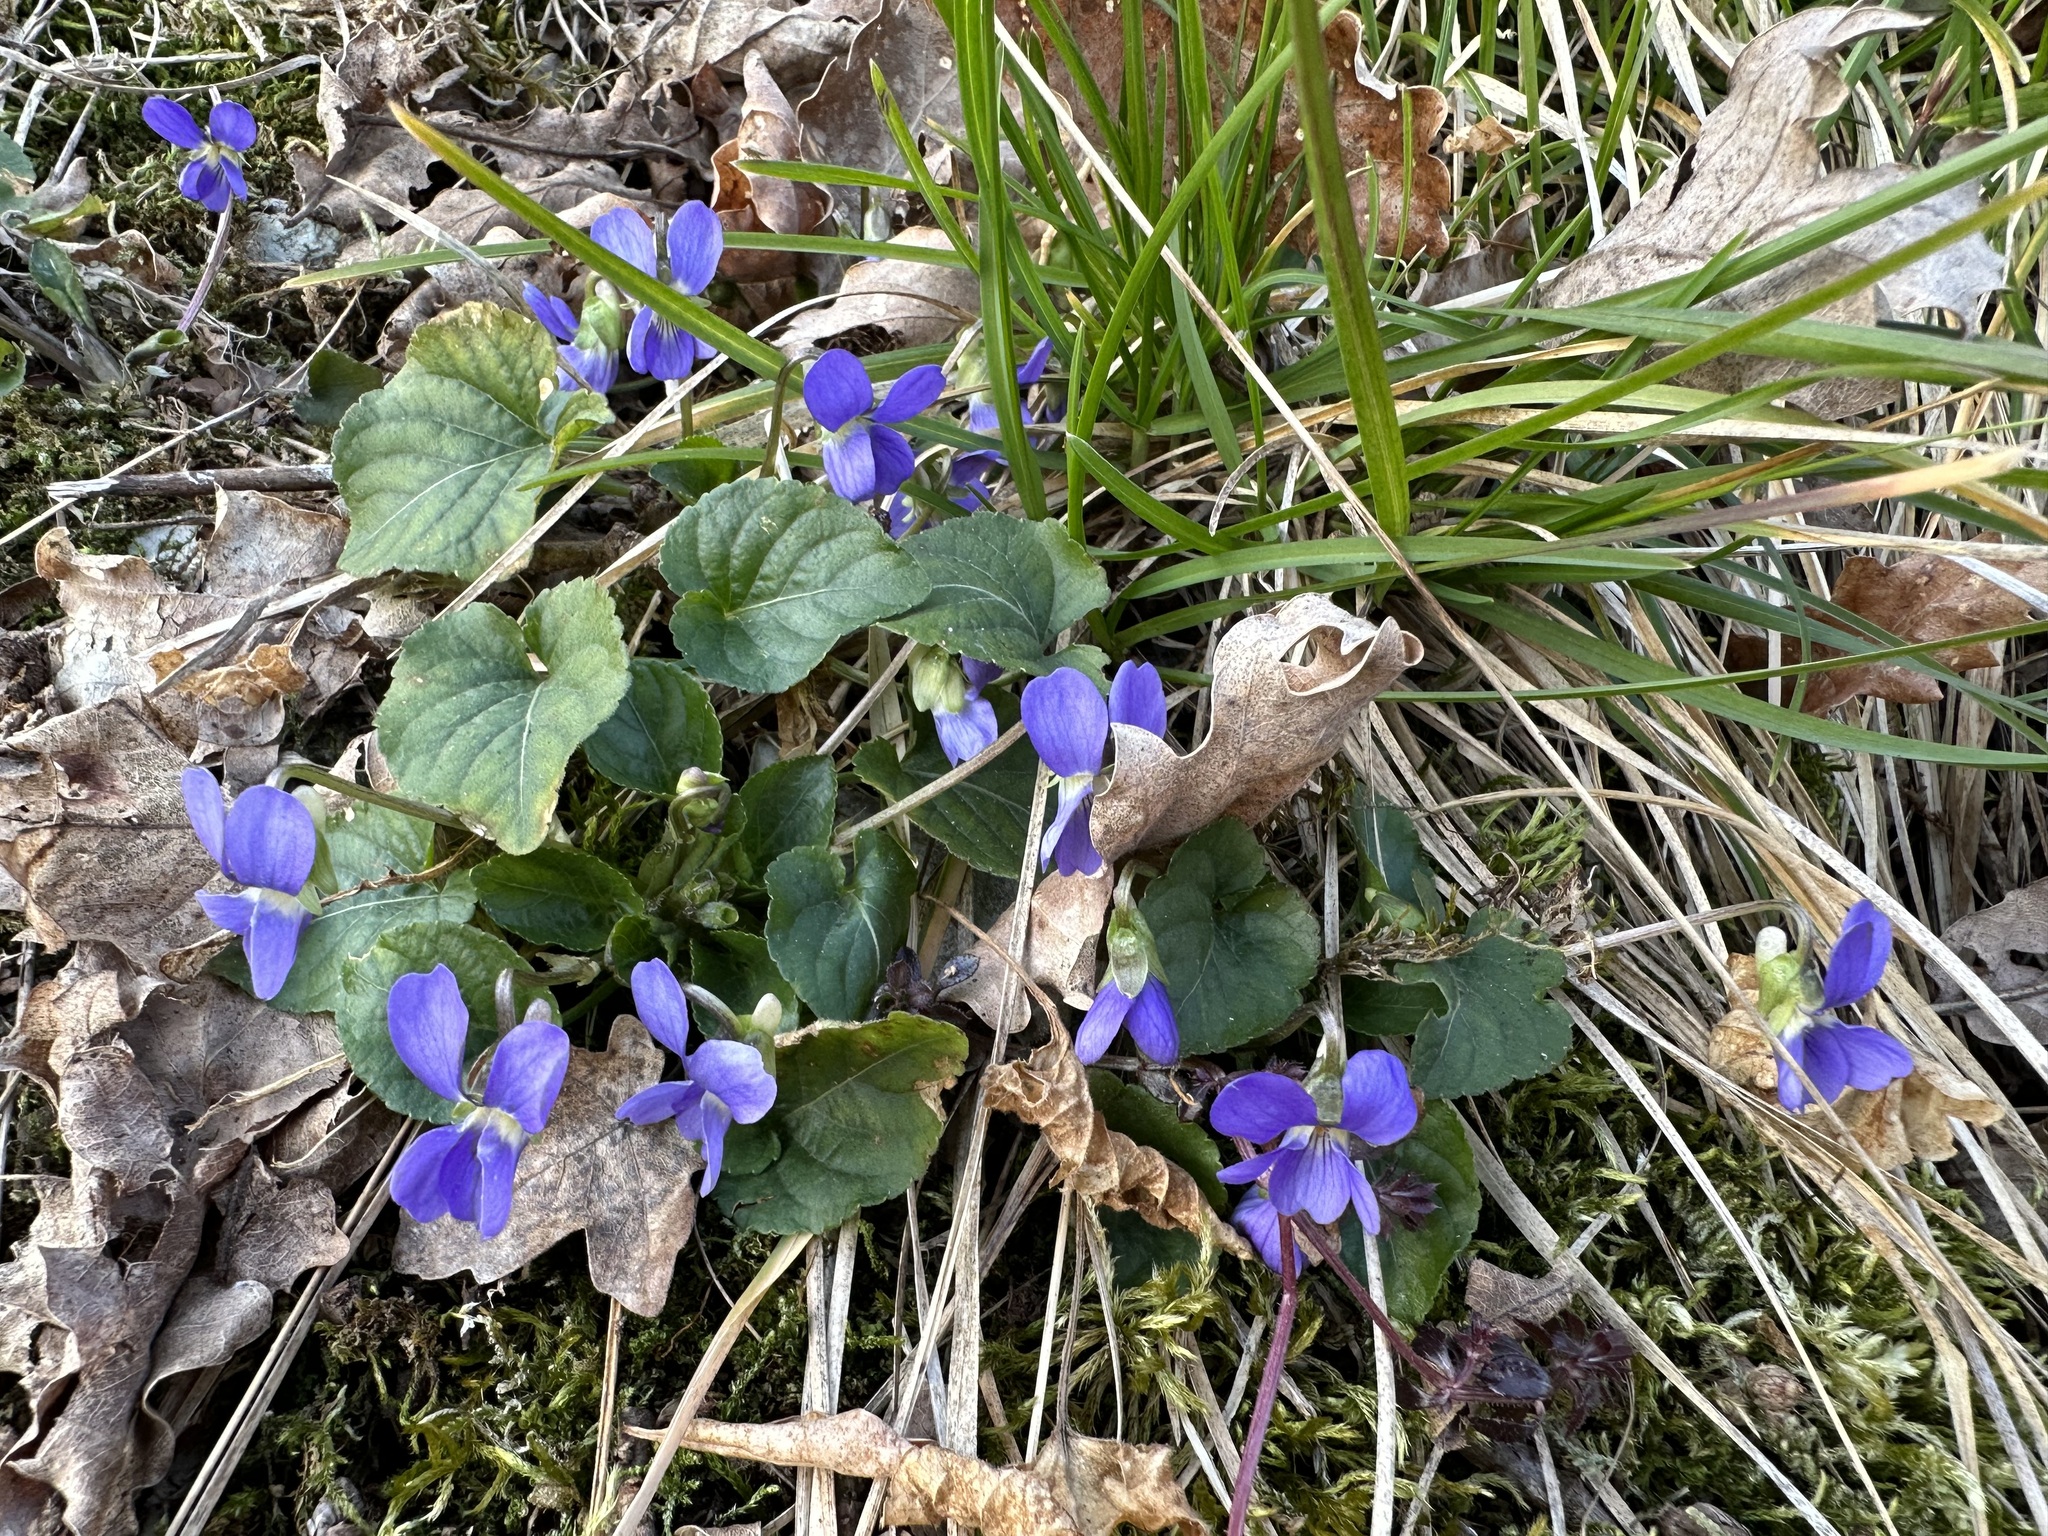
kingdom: Plantae
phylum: Tracheophyta
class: Magnoliopsida
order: Malpighiales
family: Violaceae
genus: Viola
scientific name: Viola reichenbachiana
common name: Early dog-violet
